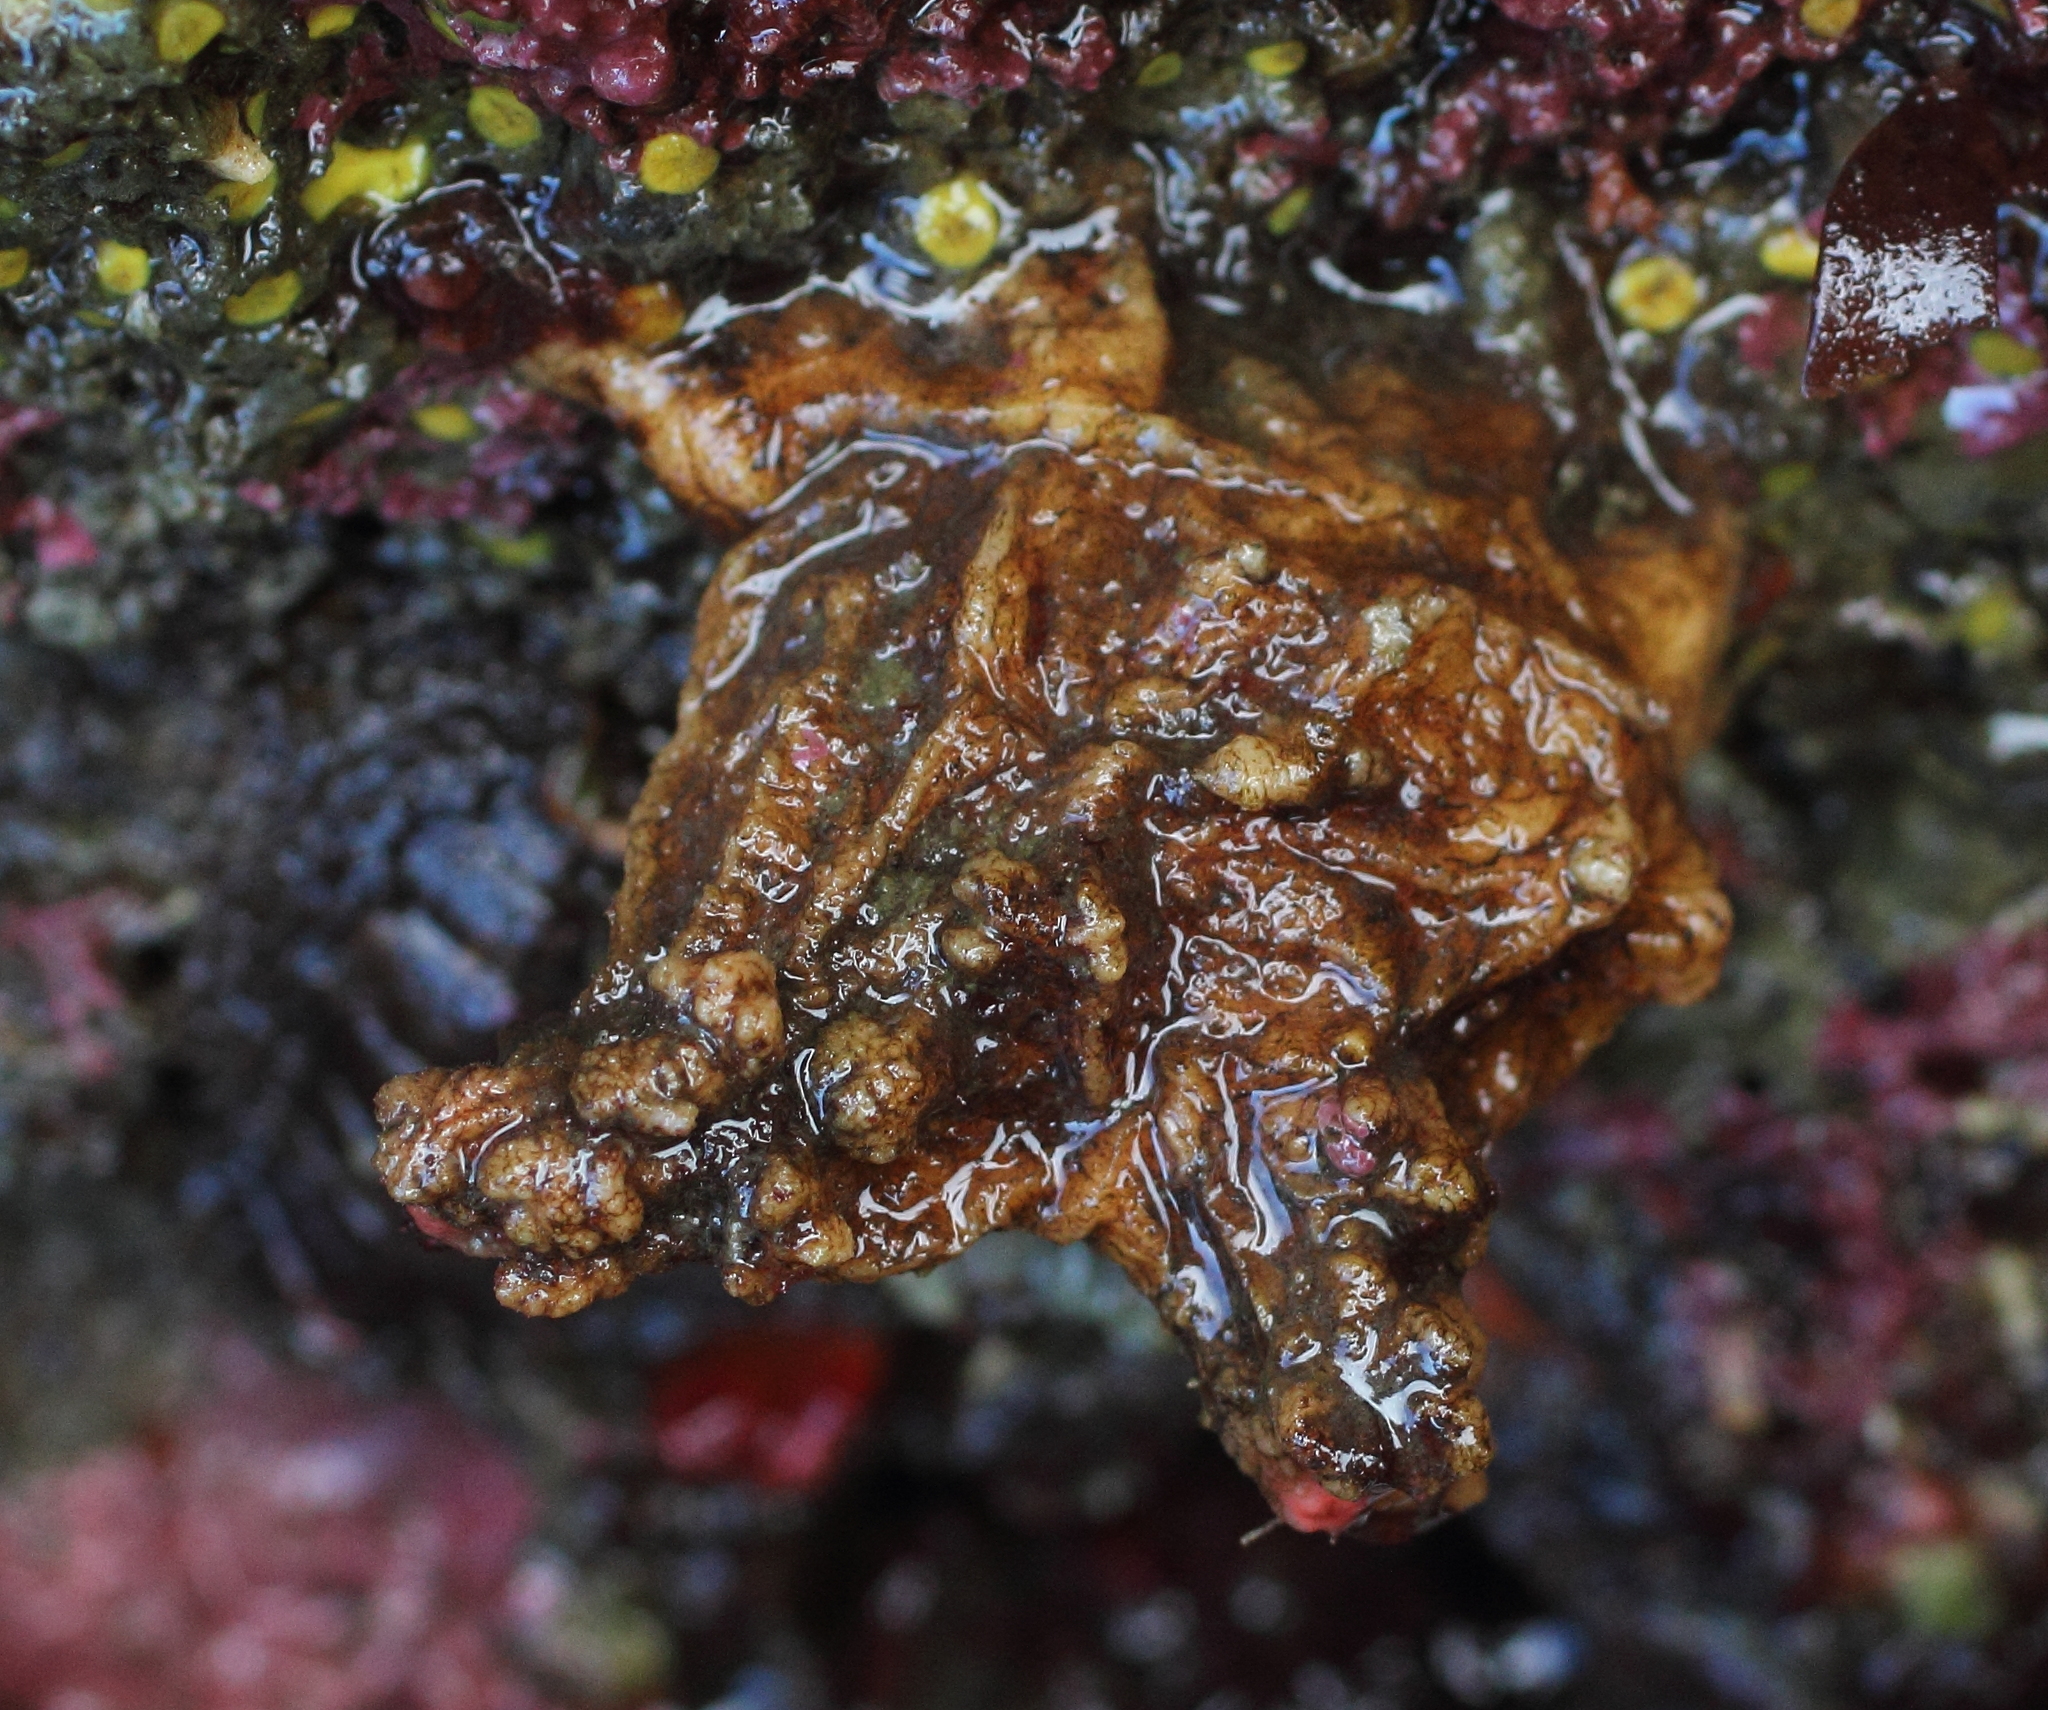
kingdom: Animalia
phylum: Chordata
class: Ascidiacea
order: Stolidobranchia
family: Pyuridae
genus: Pyura
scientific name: Pyura haustor
